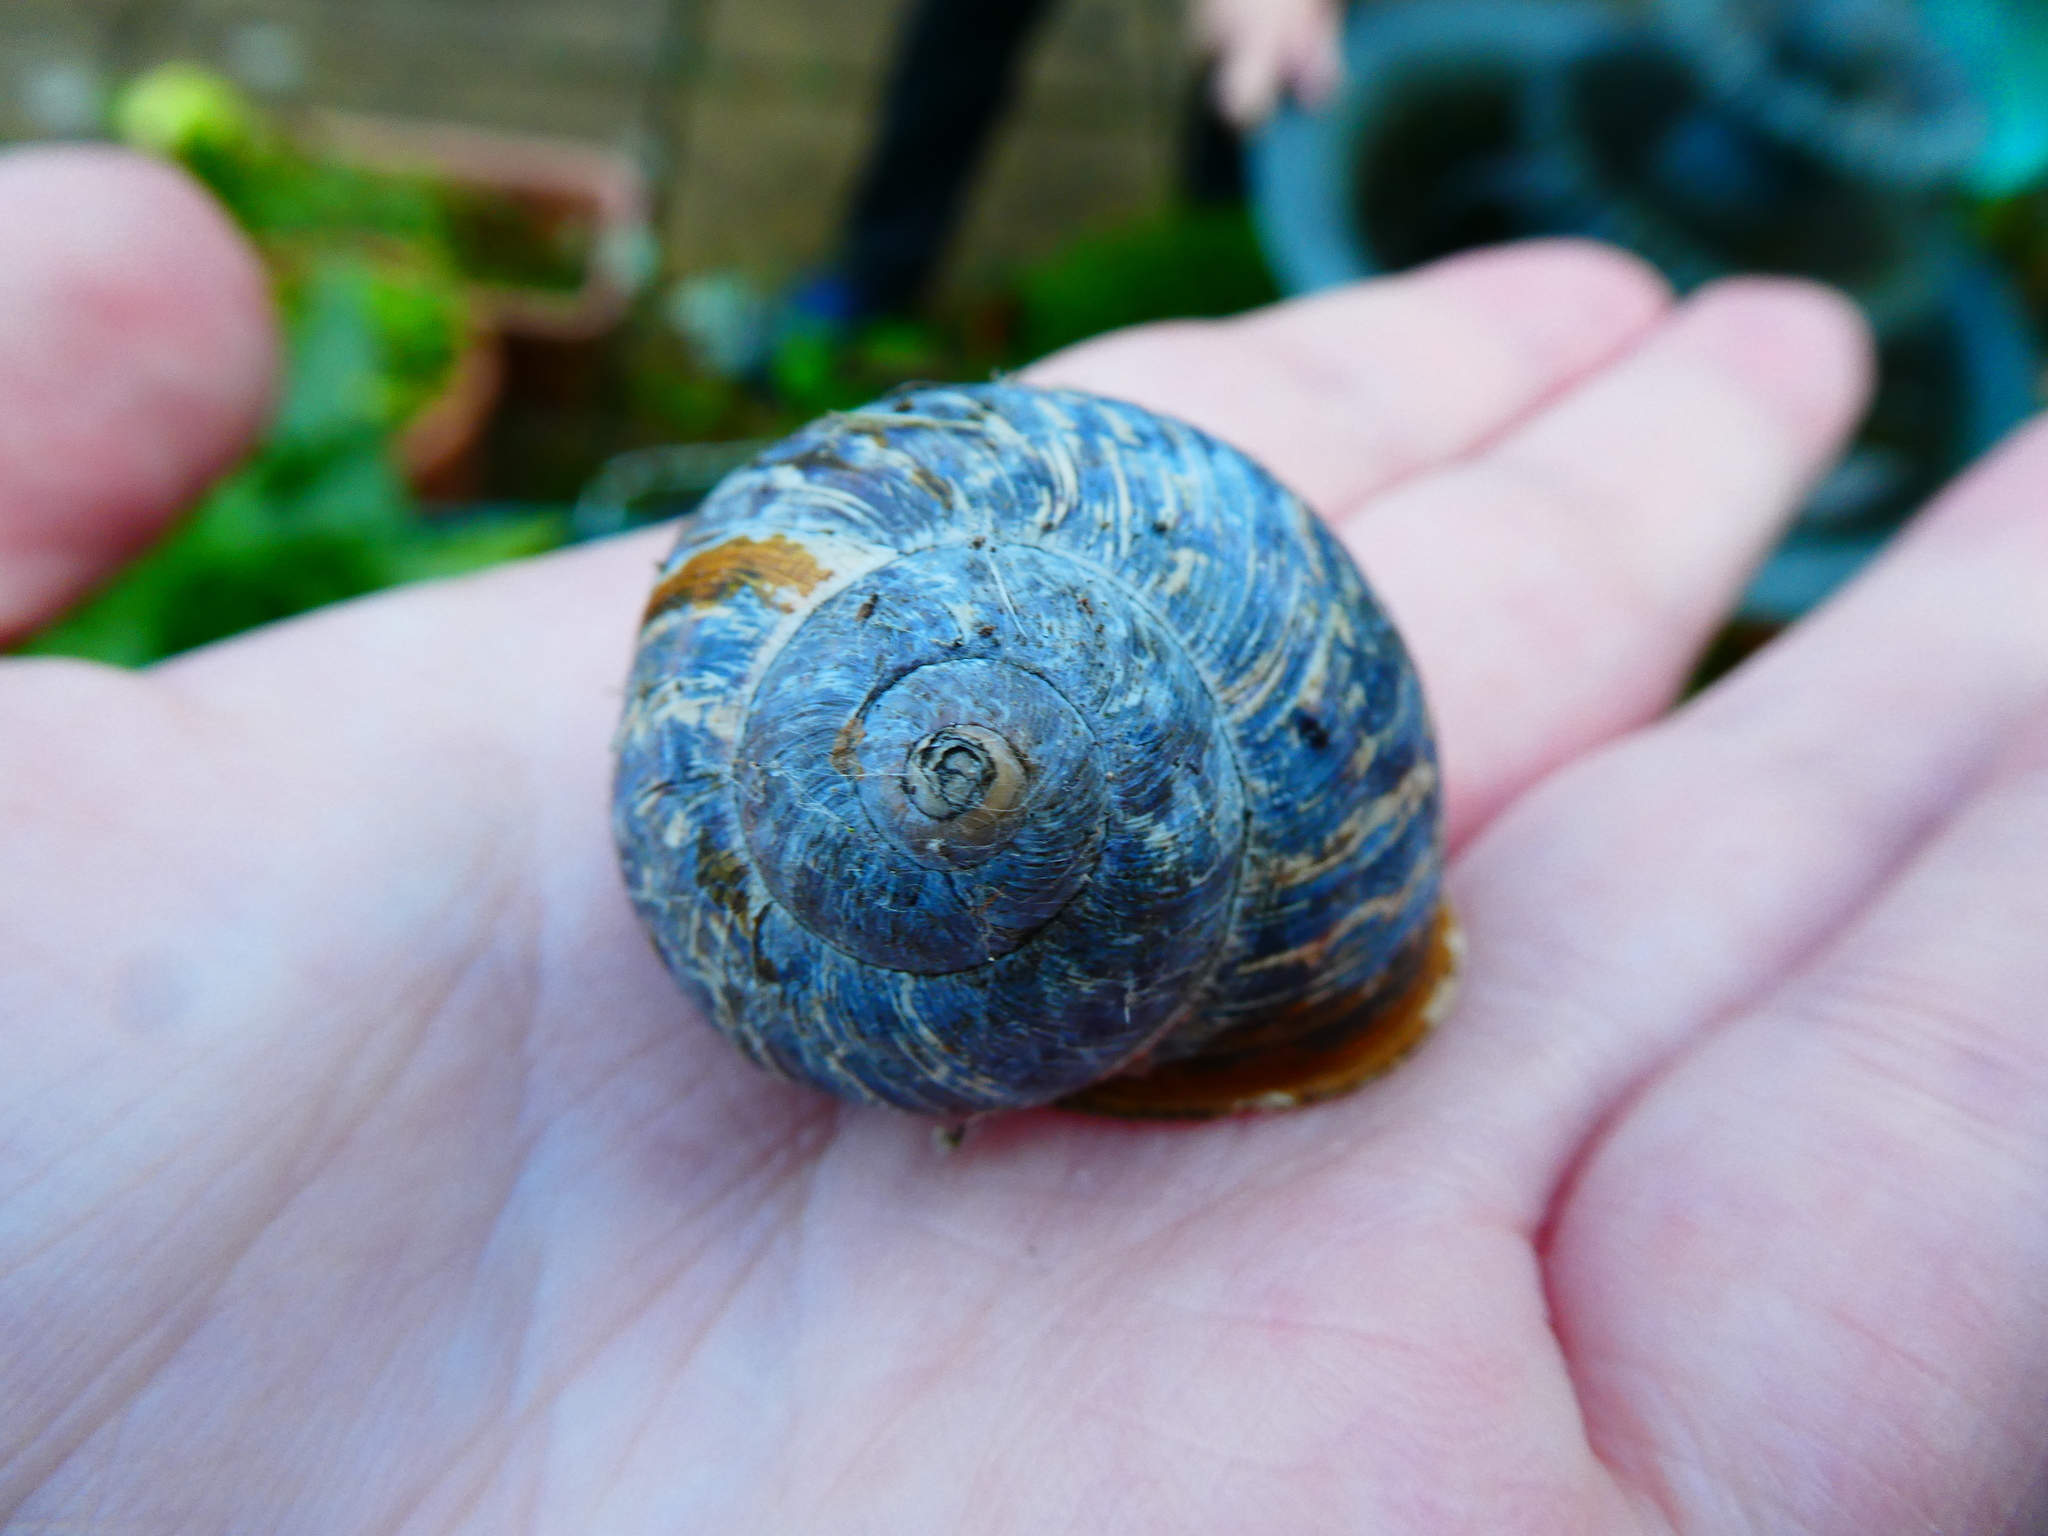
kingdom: Animalia
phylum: Mollusca
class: Gastropoda
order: Stylommatophora
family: Helicidae
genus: Cornu
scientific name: Cornu aspersum
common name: Brown garden snail
